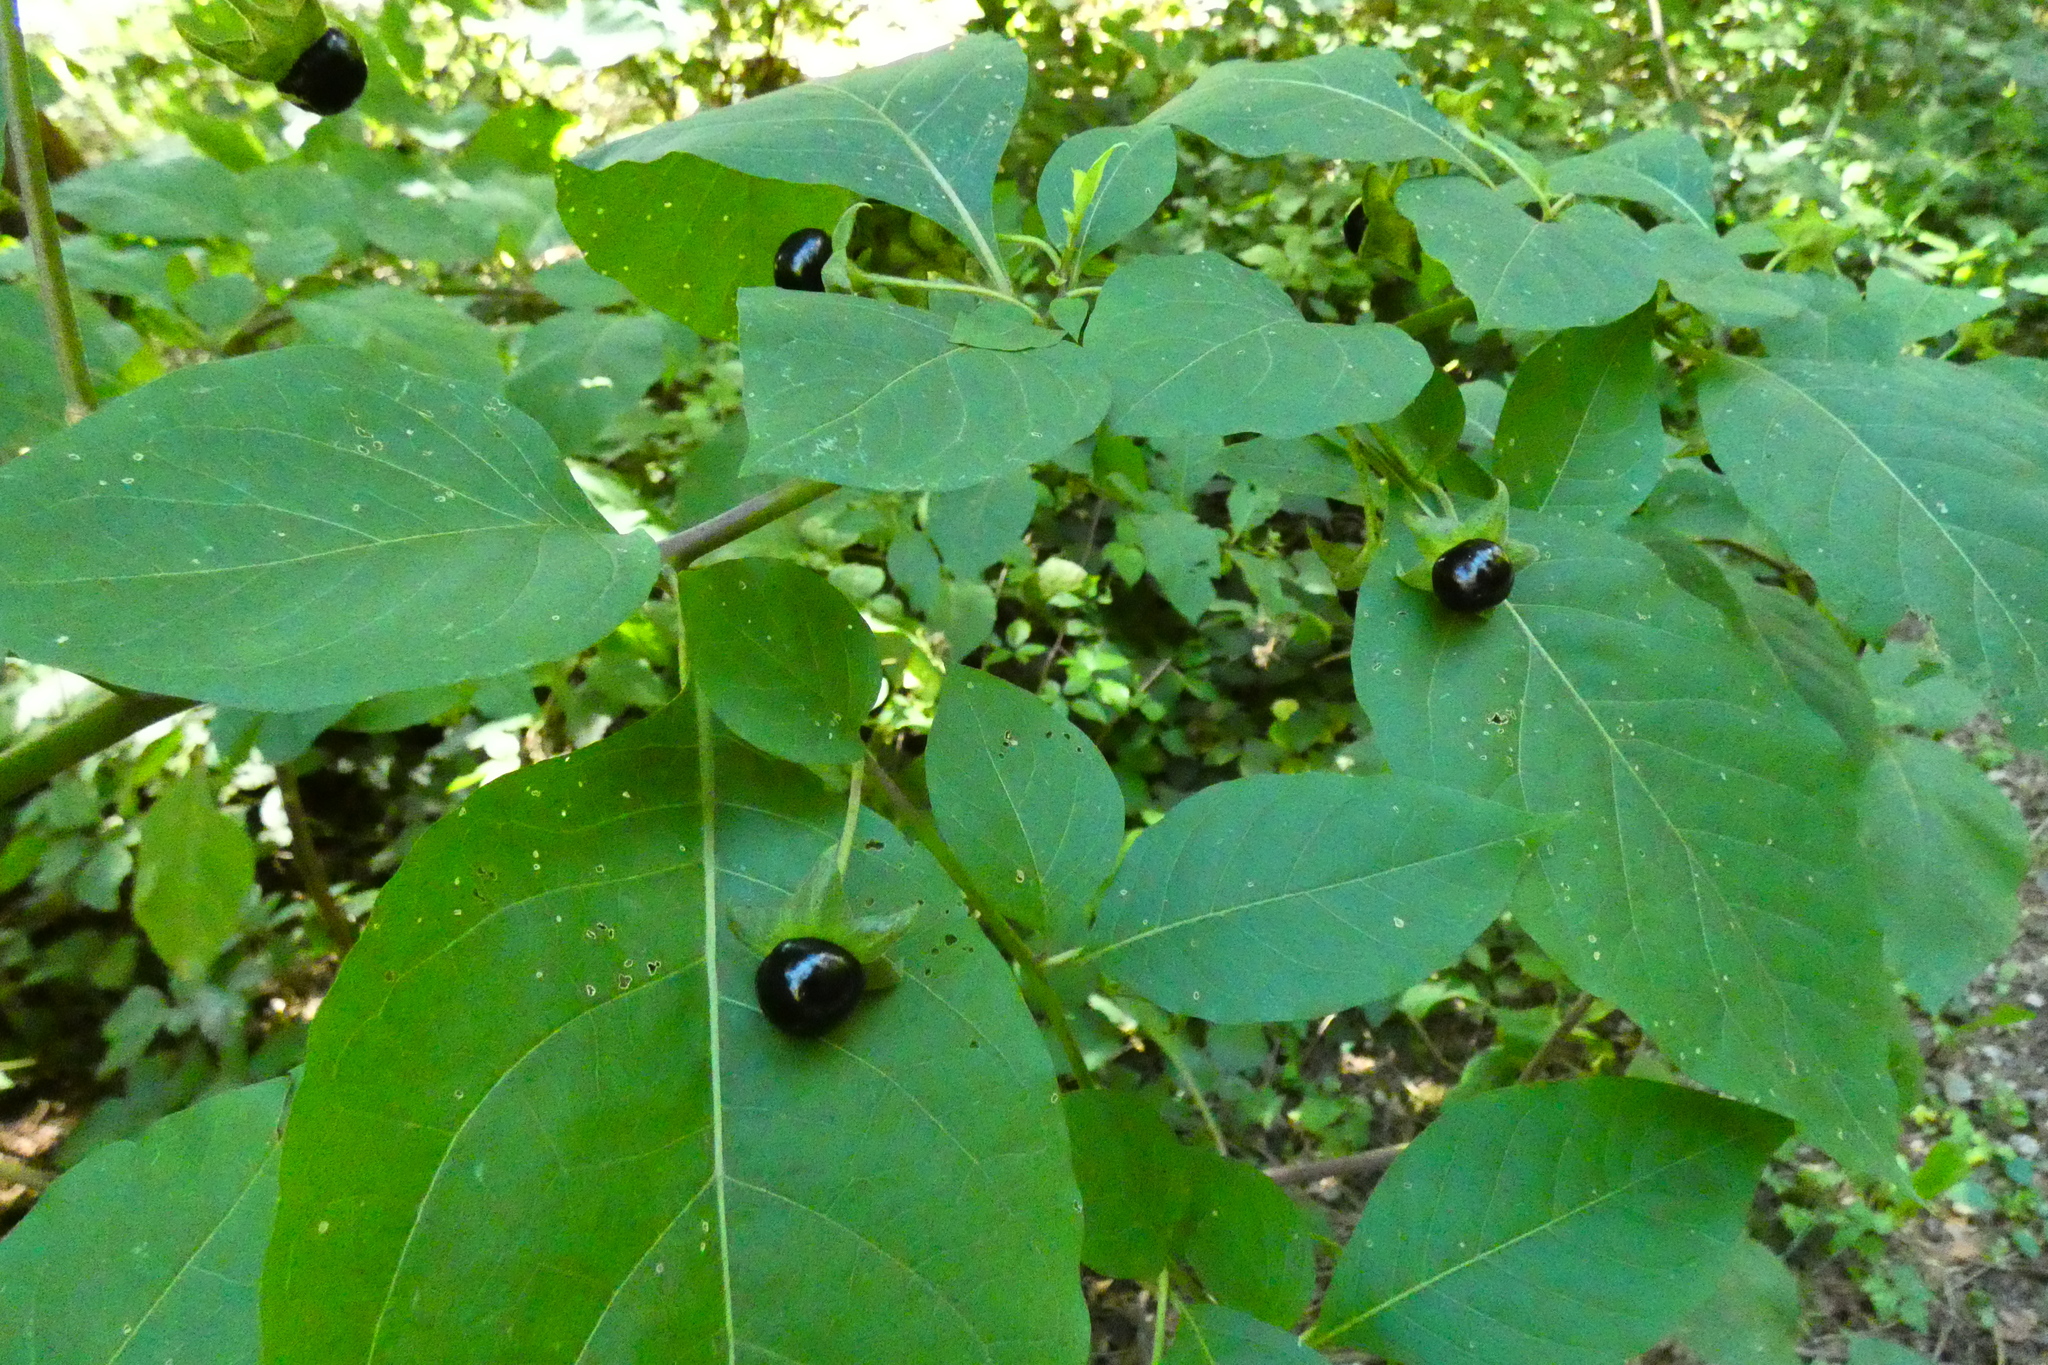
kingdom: Plantae
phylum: Tracheophyta
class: Magnoliopsida
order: Solanales
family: Solanaceae
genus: Atropa
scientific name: Atropa belladonna
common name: Deadly nightshade
